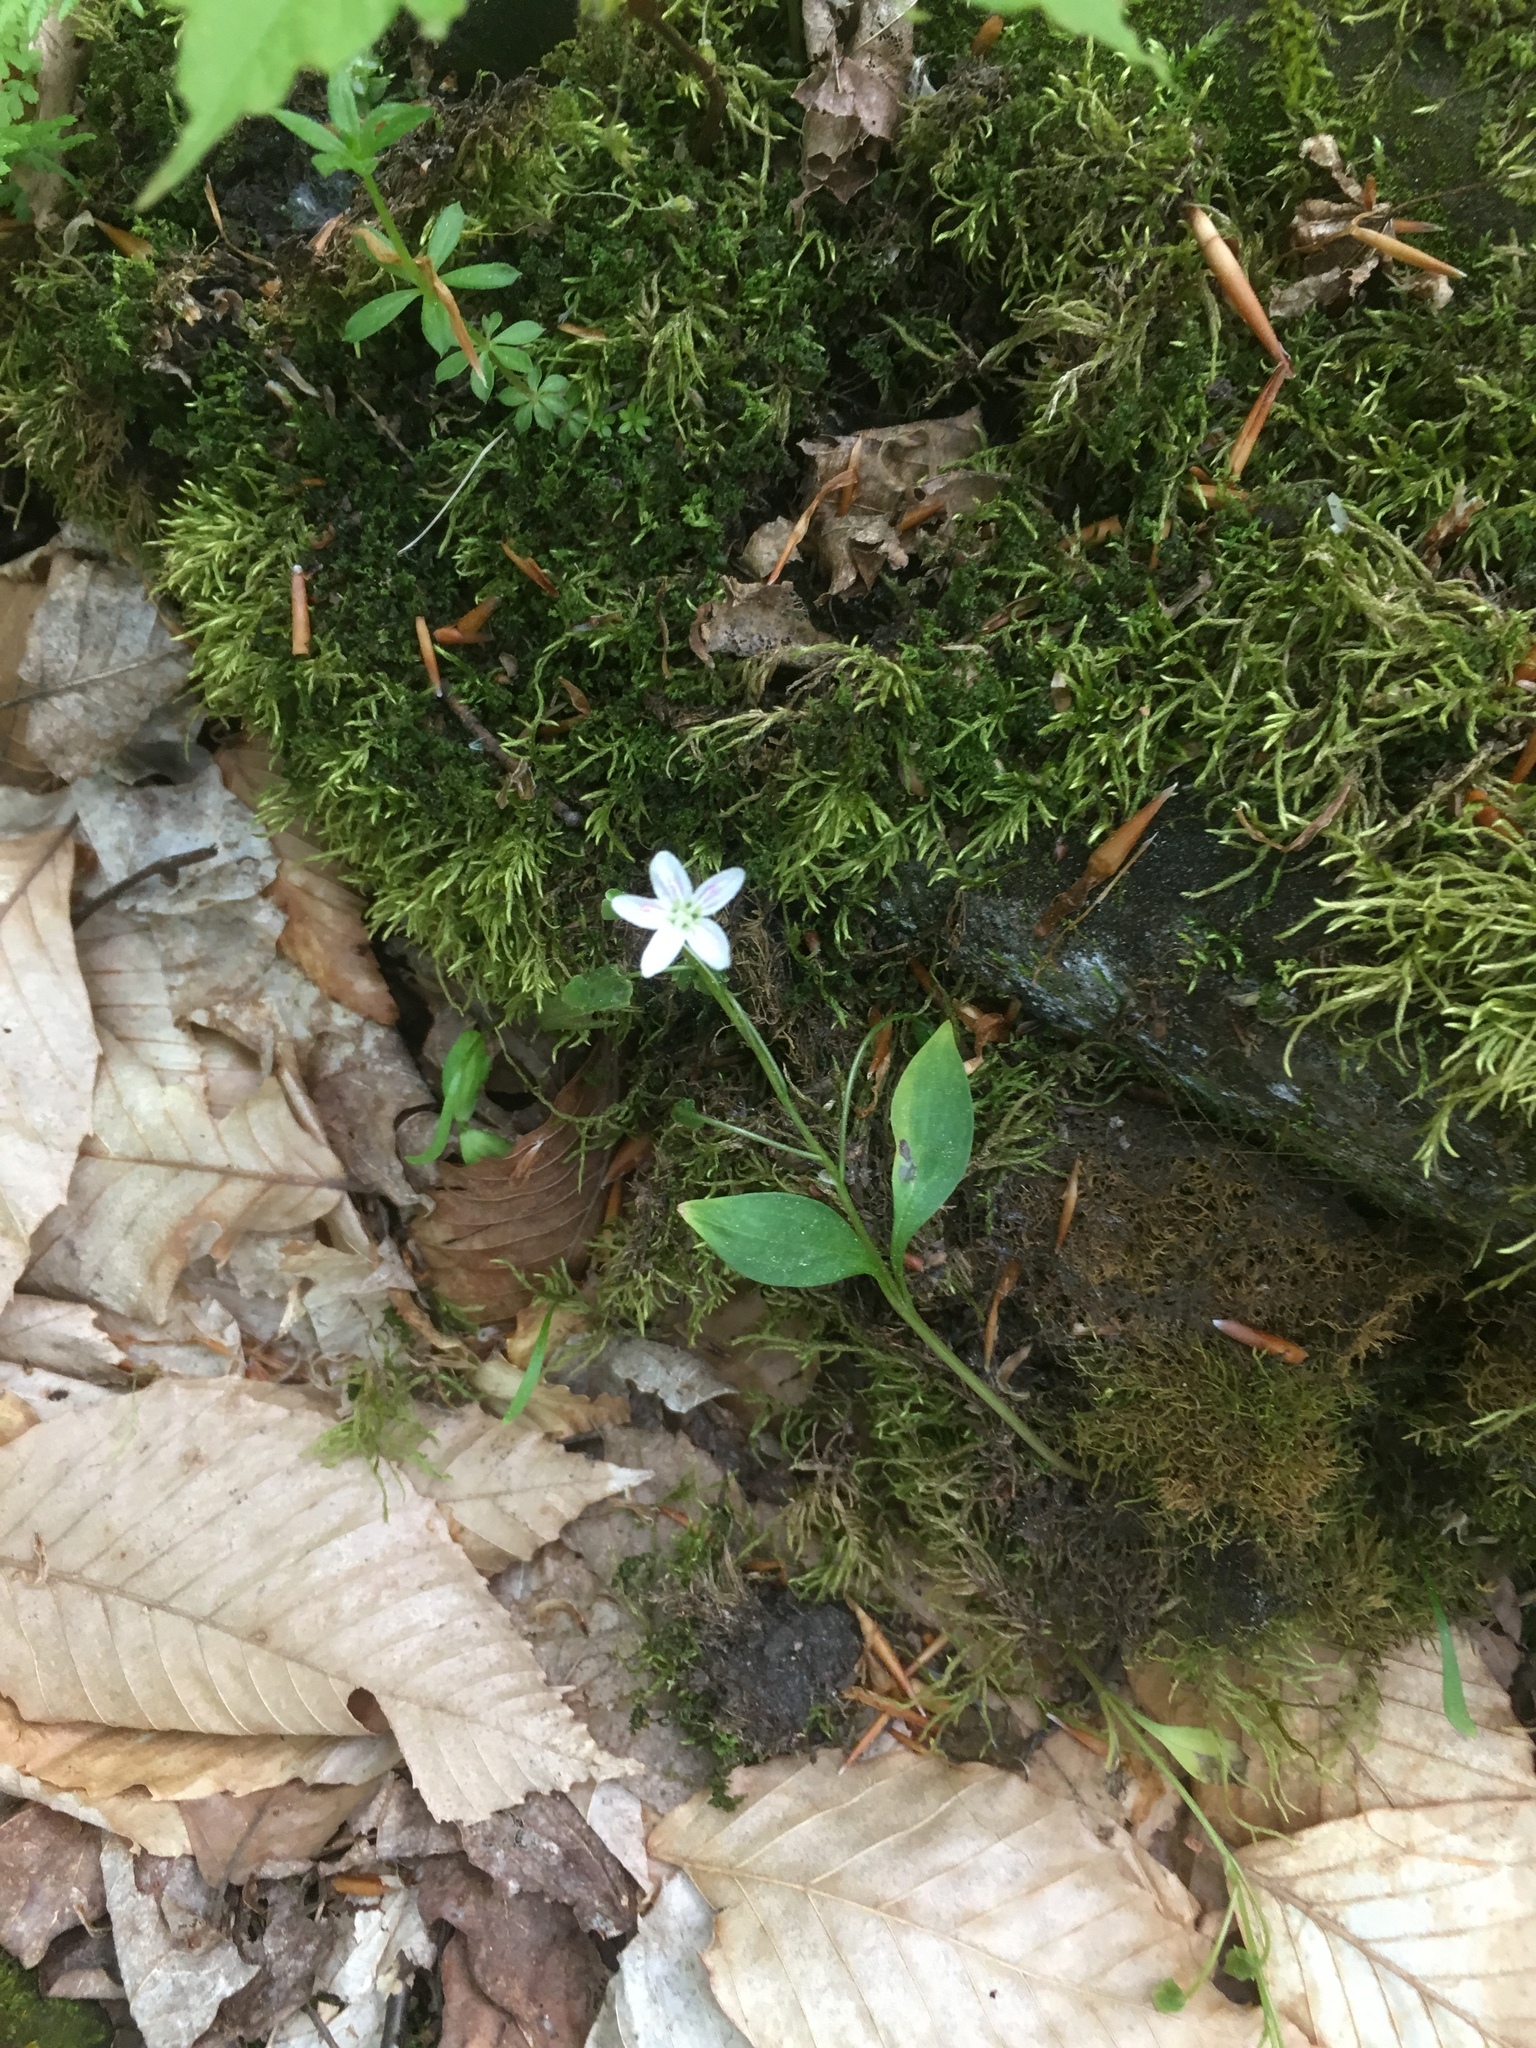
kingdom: Plantae
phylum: Tracheophyta
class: Magnoliopsida
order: Caryophyllales
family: Montiaceae
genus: Claytonia
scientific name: Claytonia caroliniana
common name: Carolina spring beauty
